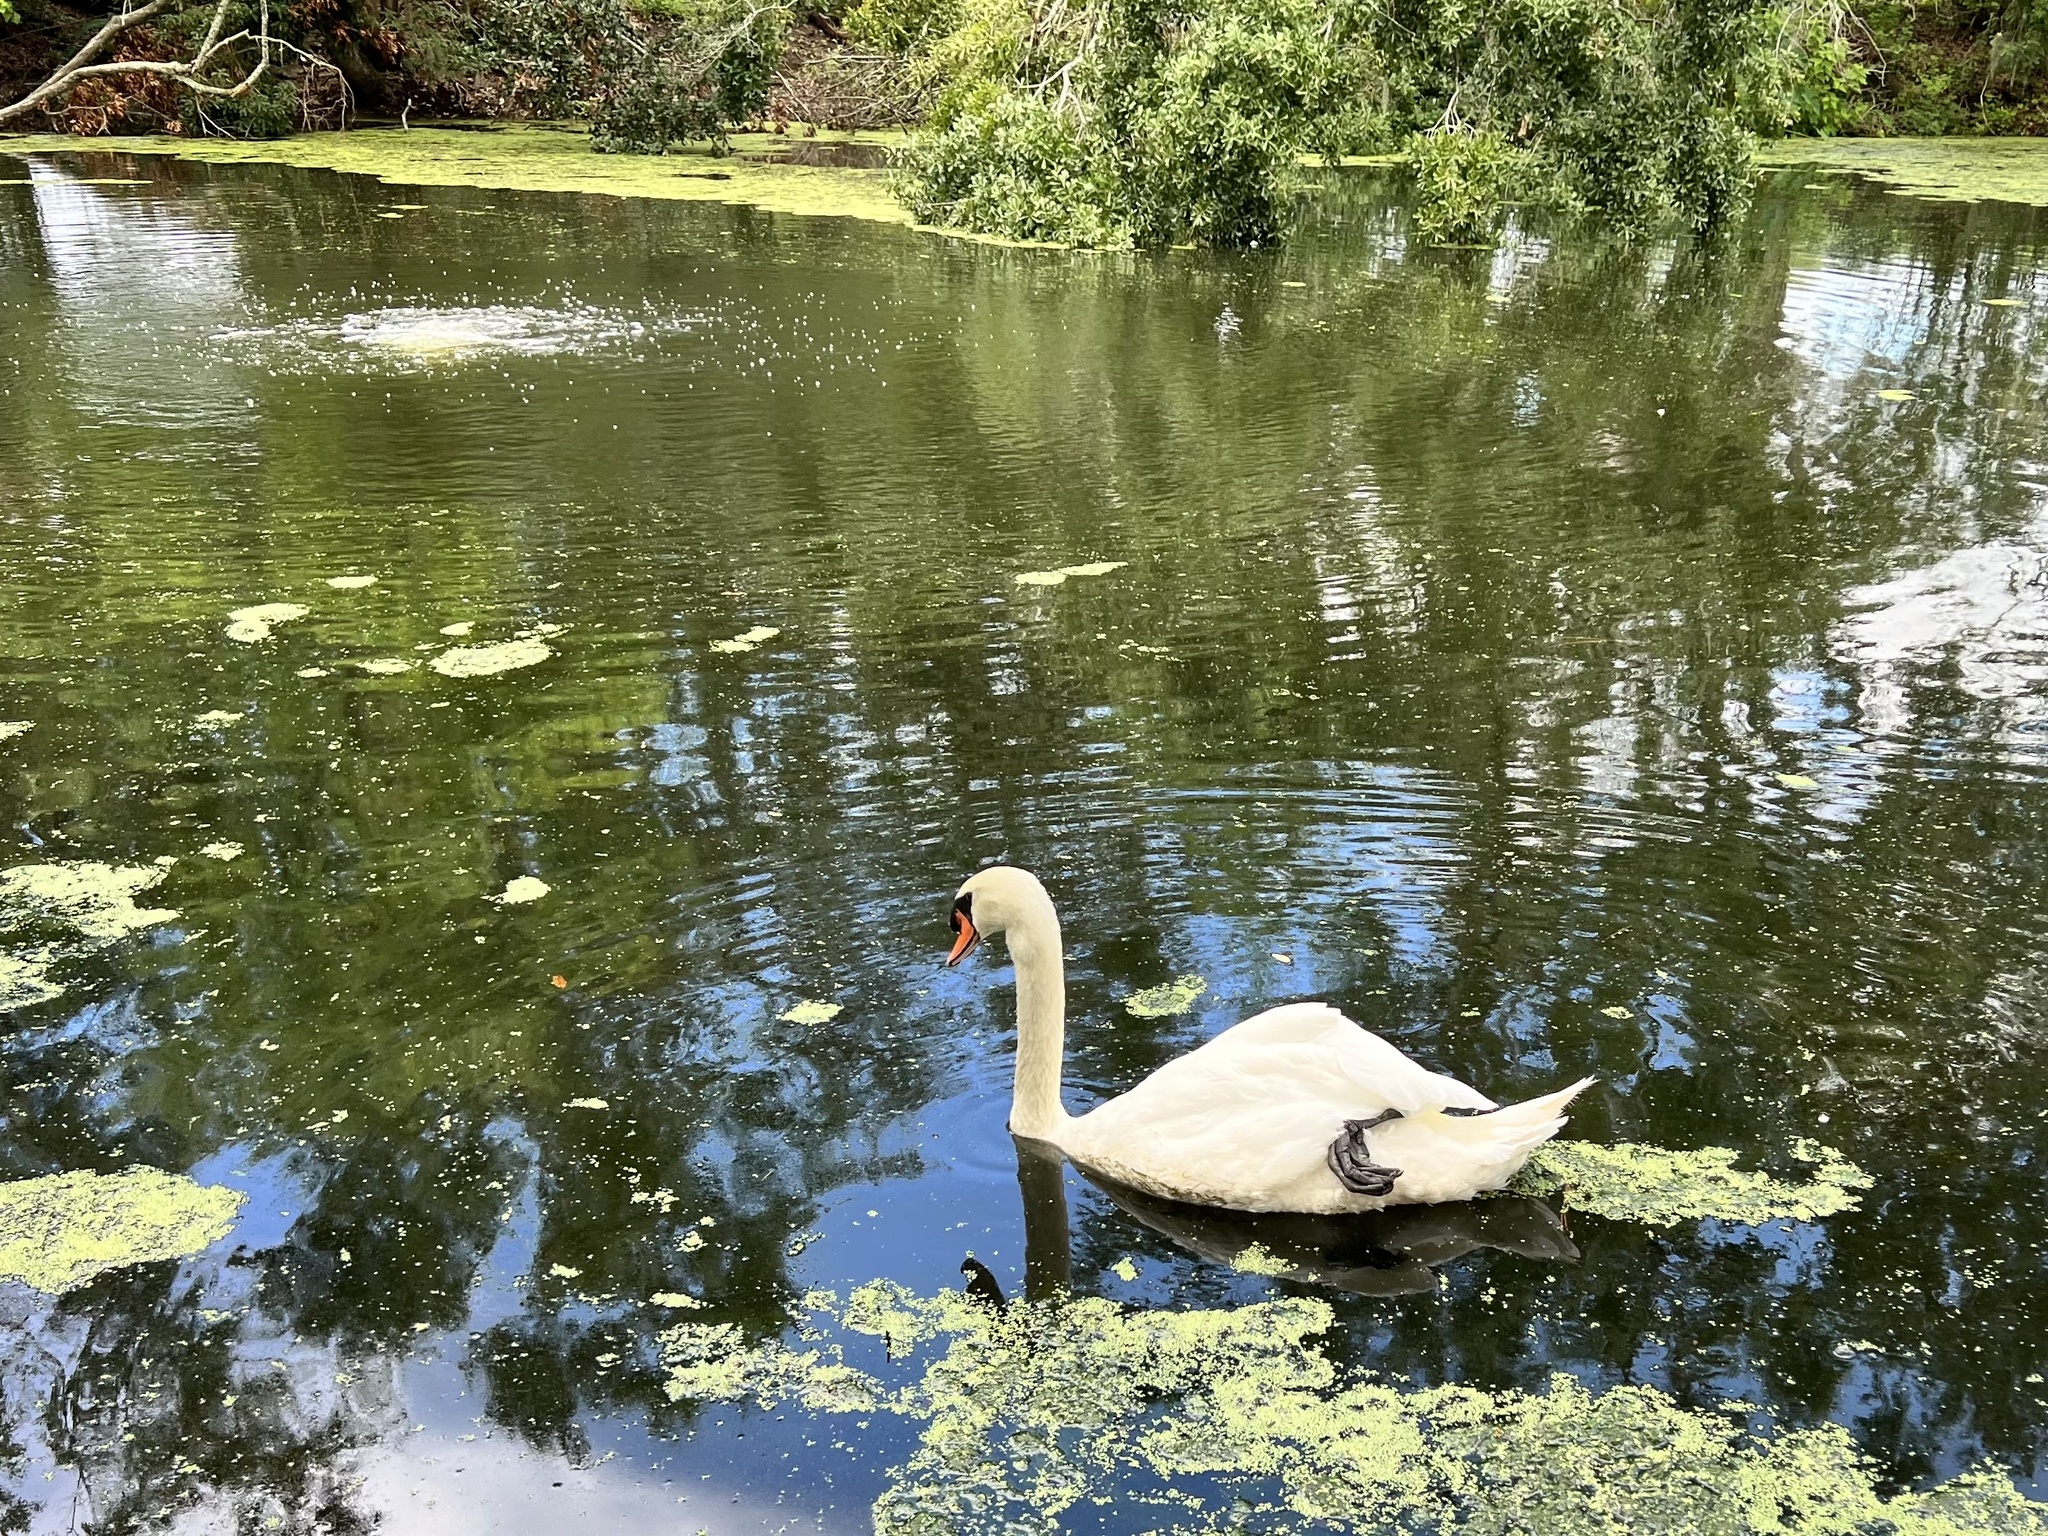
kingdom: Animalia
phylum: Chordata
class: Aves
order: Anseriformes
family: Anatidae
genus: Cygnus
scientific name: Cygnus olor
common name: Mute swan
